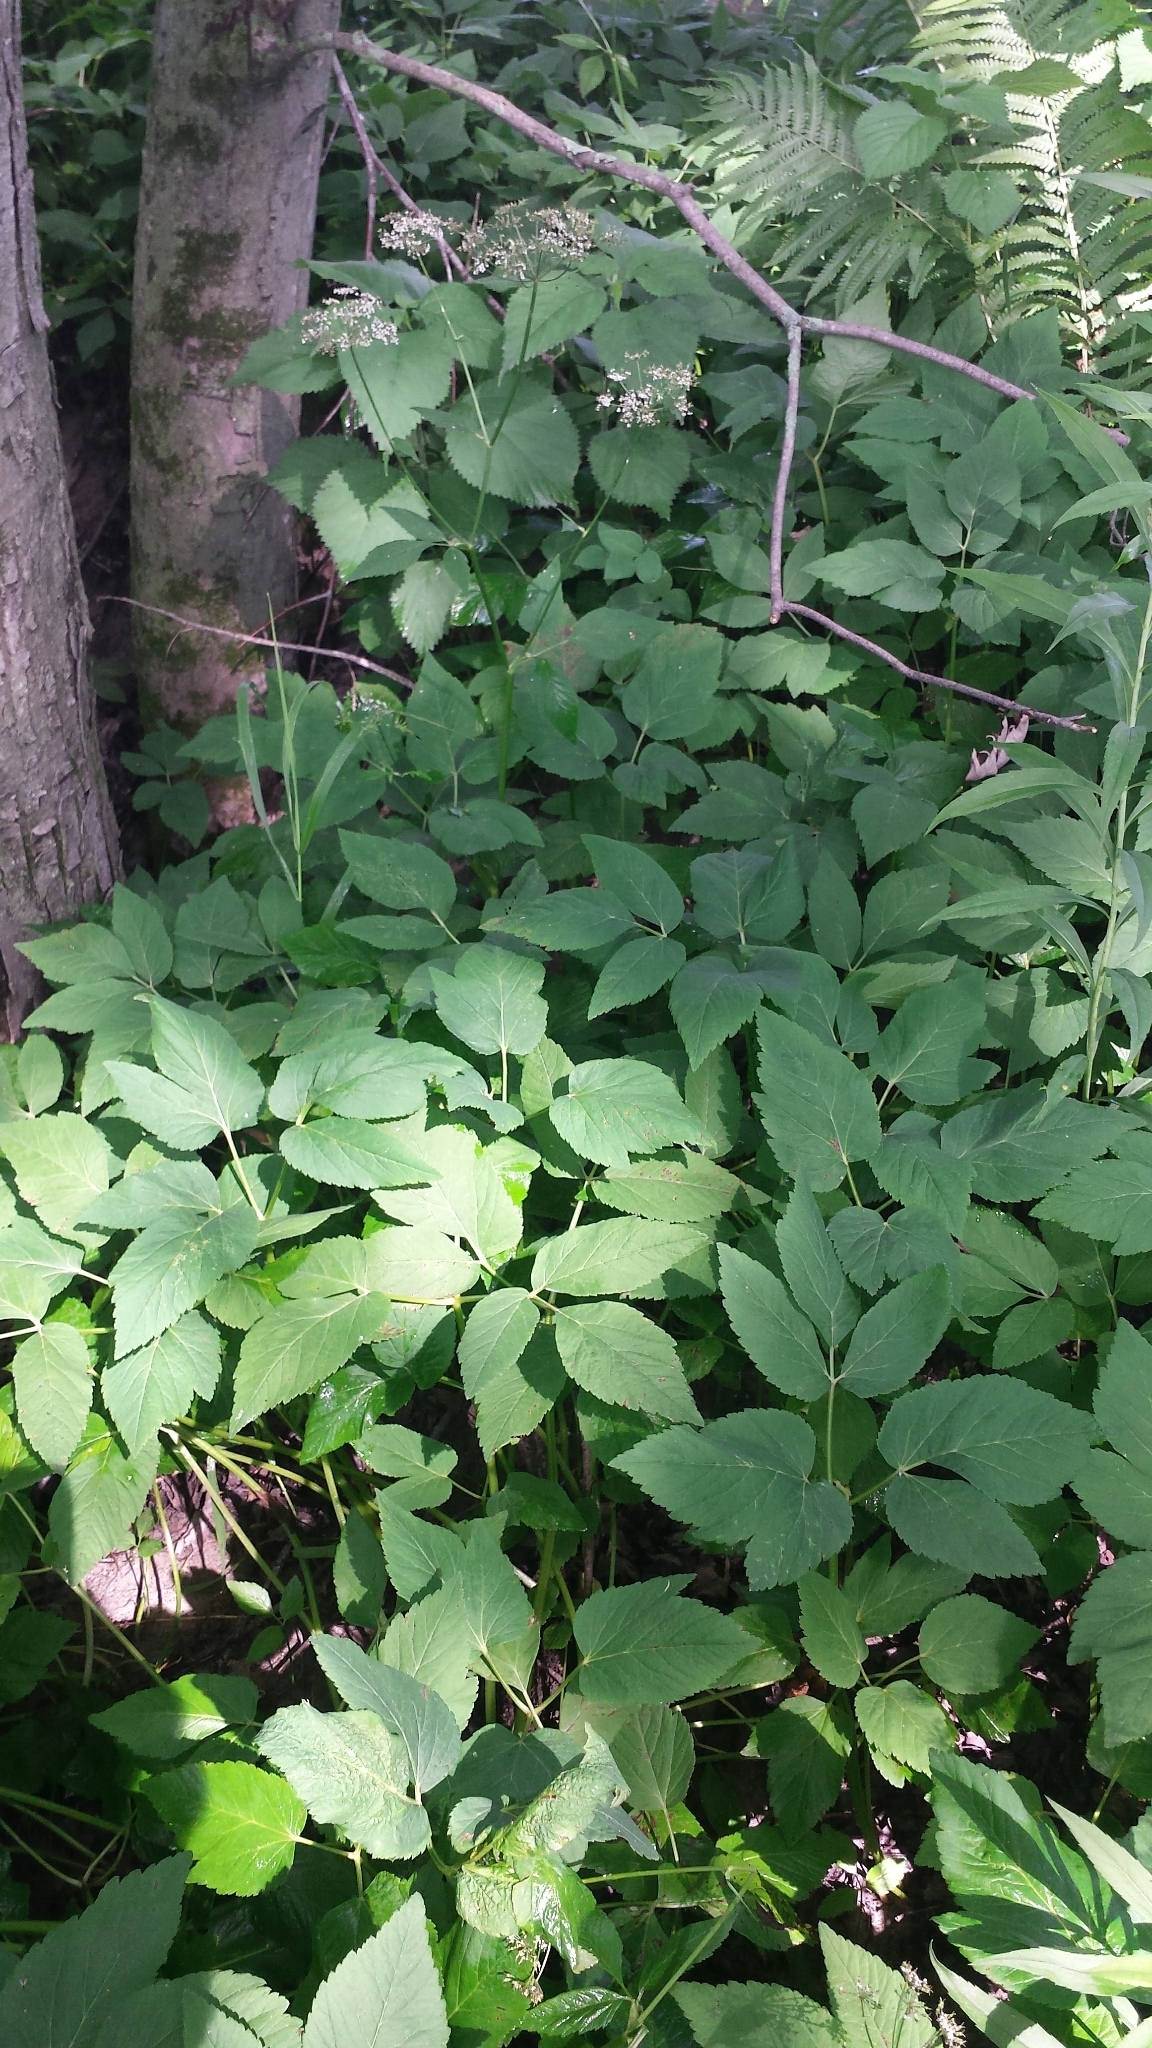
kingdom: Plantae
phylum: Tracheophyta
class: Magnoliopsida
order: Apiales
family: Apiaceae
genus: Aegopodium
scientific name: Aegopodium podagraria
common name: Ground-elder
